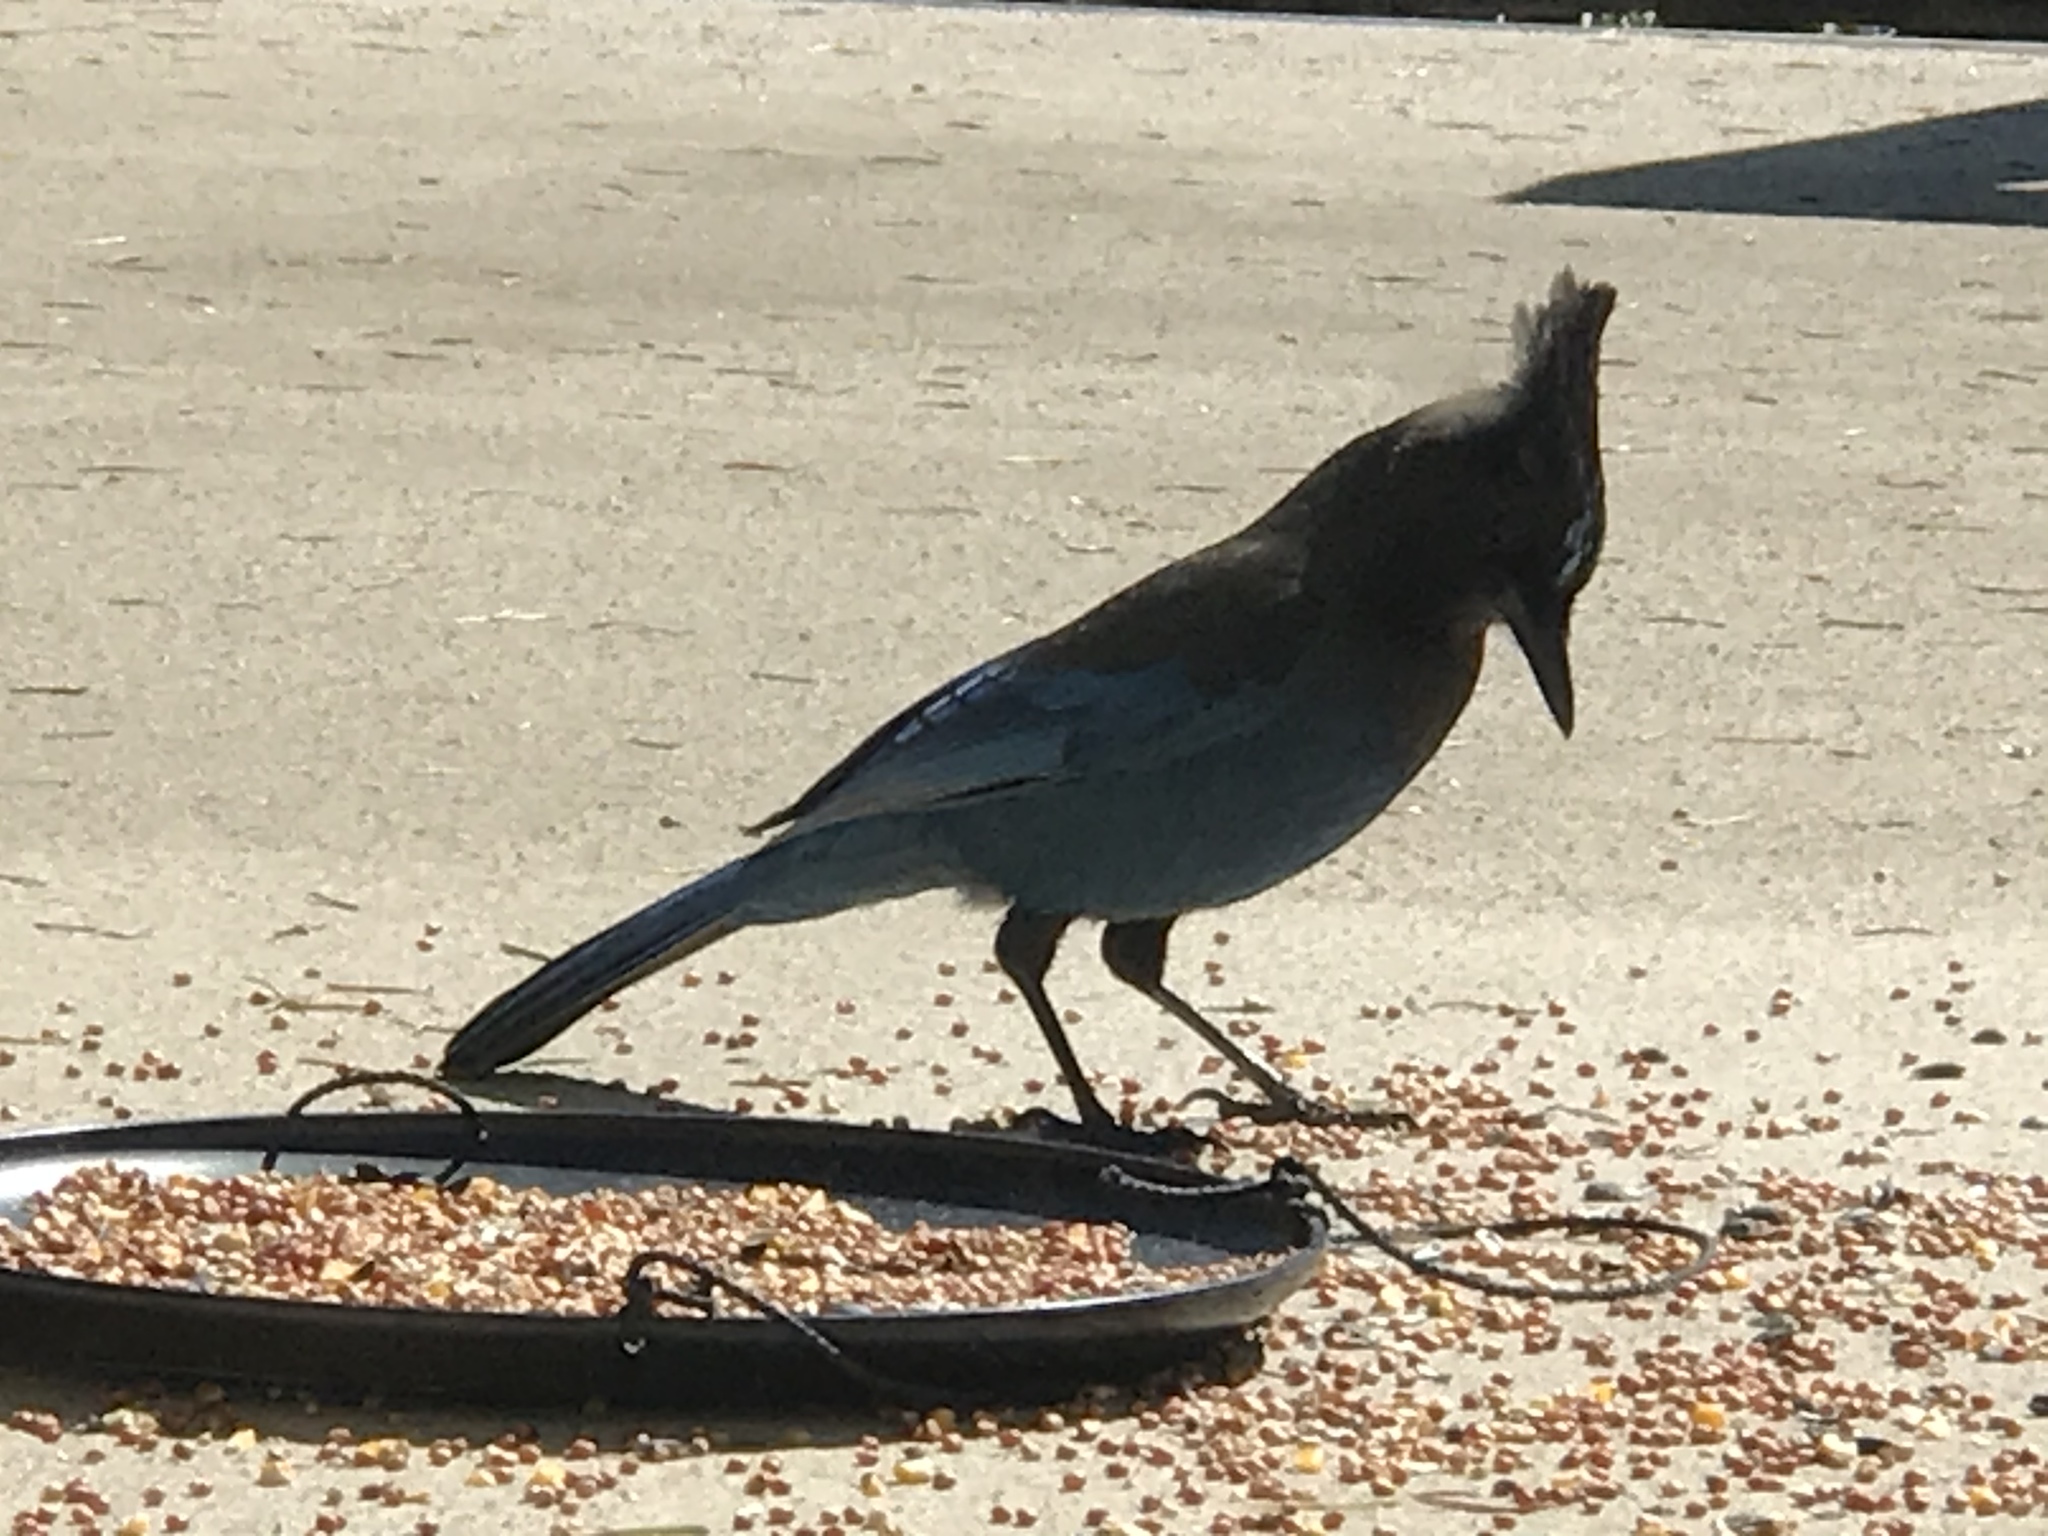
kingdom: Animalia
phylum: Chordata
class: Aves
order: Passeriformes
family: Corvidae
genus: Cyanocitta
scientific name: Cyanocitta stelleri
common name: Steller's jay
